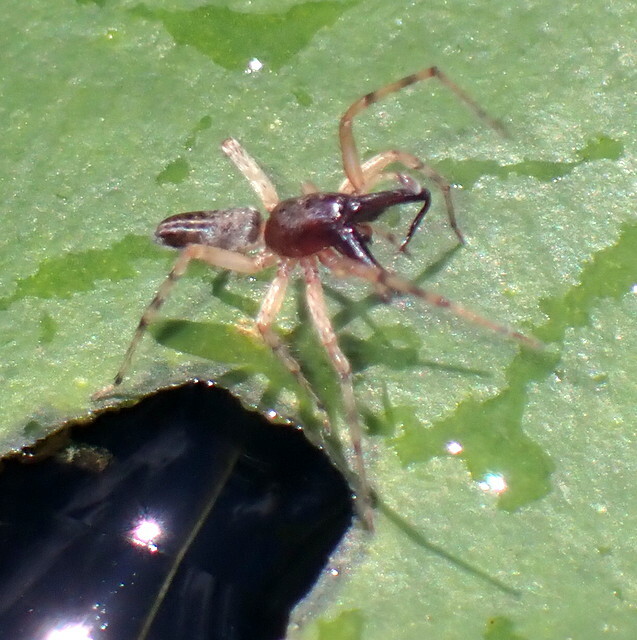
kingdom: Animalia
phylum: Arthropoda
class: Arachnida
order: Araneae
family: Anyphaenidae
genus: Lupettiana
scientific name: Lupettiana mordax
